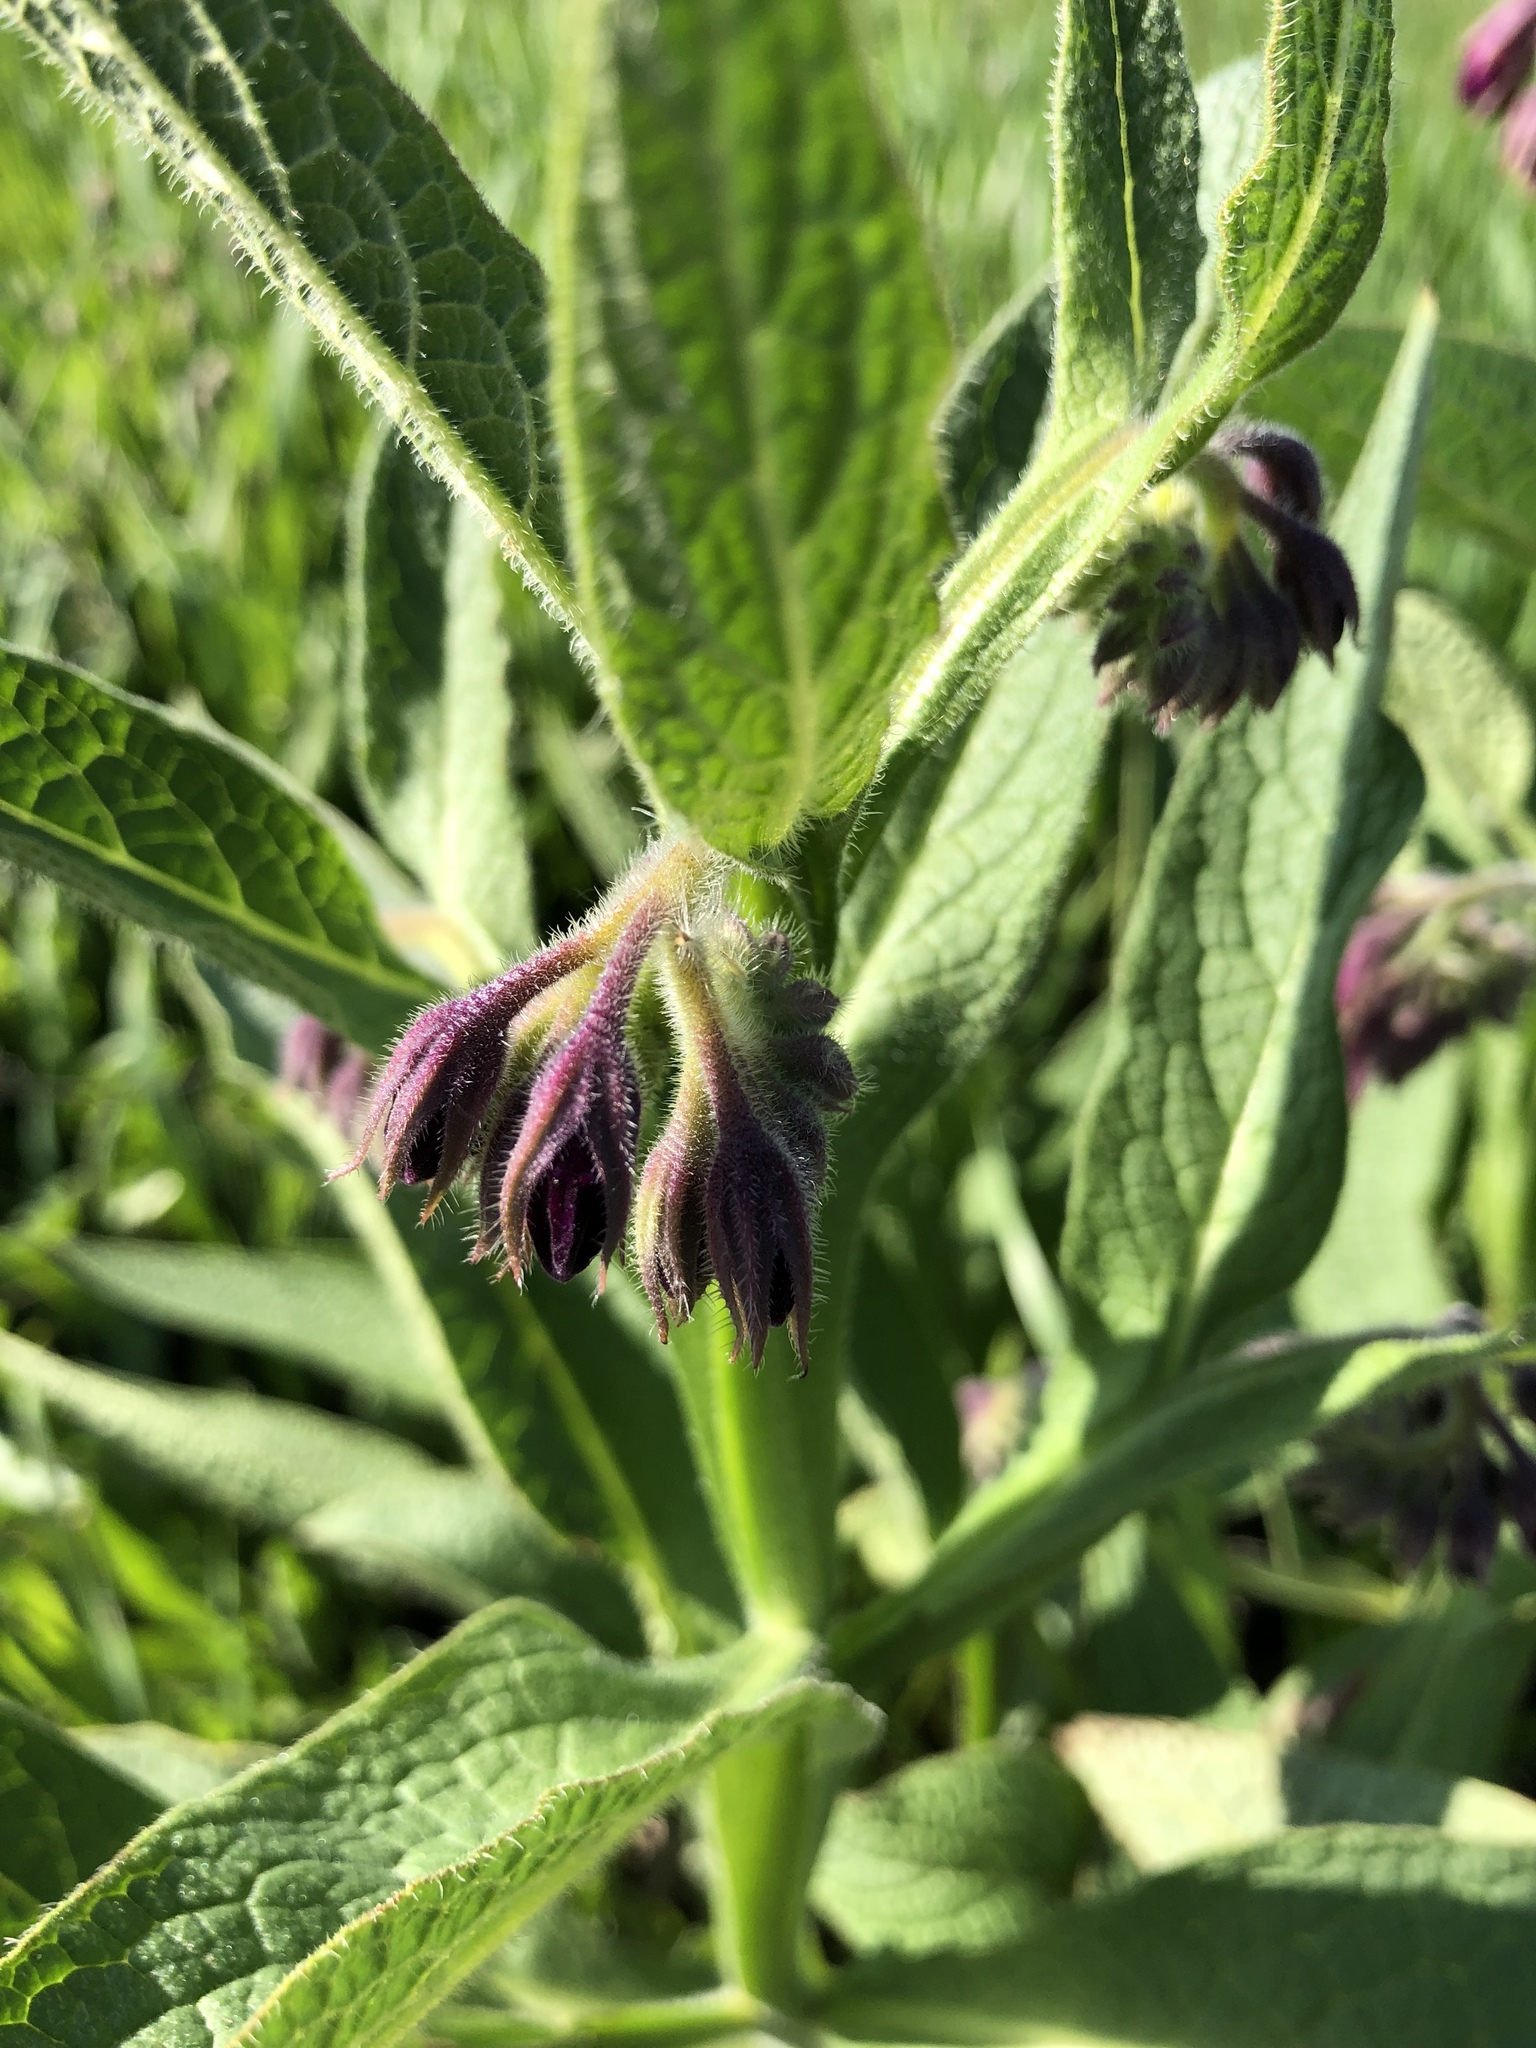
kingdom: Plantae
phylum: Tracheophyta
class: Magnoliopsida
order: Boraginales
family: Boraginaceae
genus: Symphytum
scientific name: Symphytum officinale
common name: Common comfrey
